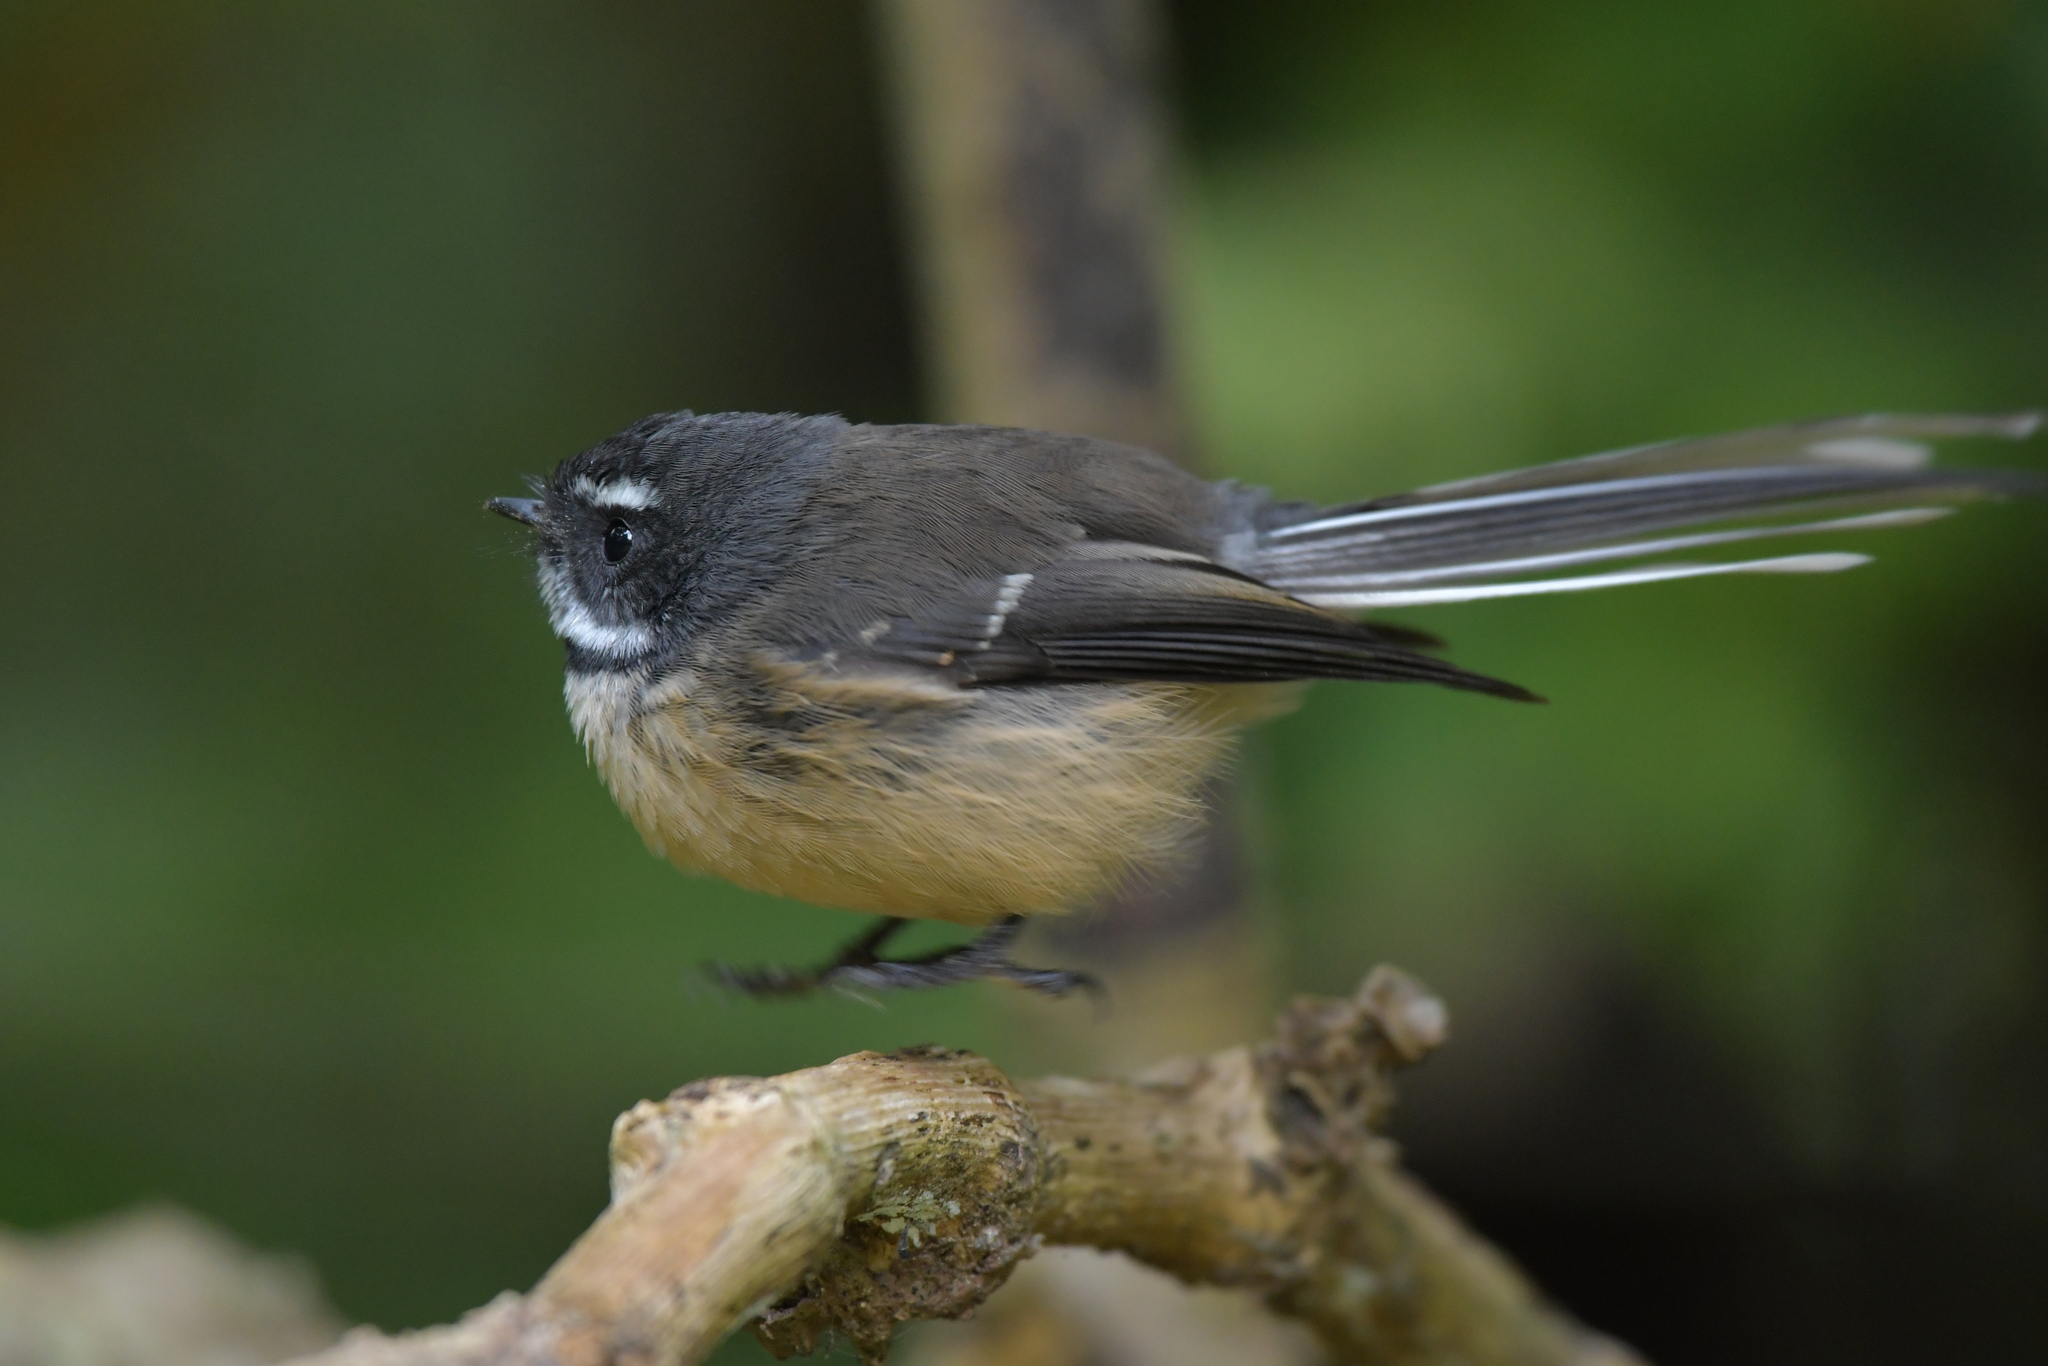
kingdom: Animalia
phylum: Chordata
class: Aves
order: Passeriformes
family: Rhipiduridae
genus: Rhipidura
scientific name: Rhipidura fuliginosa
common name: New zealand fantail
